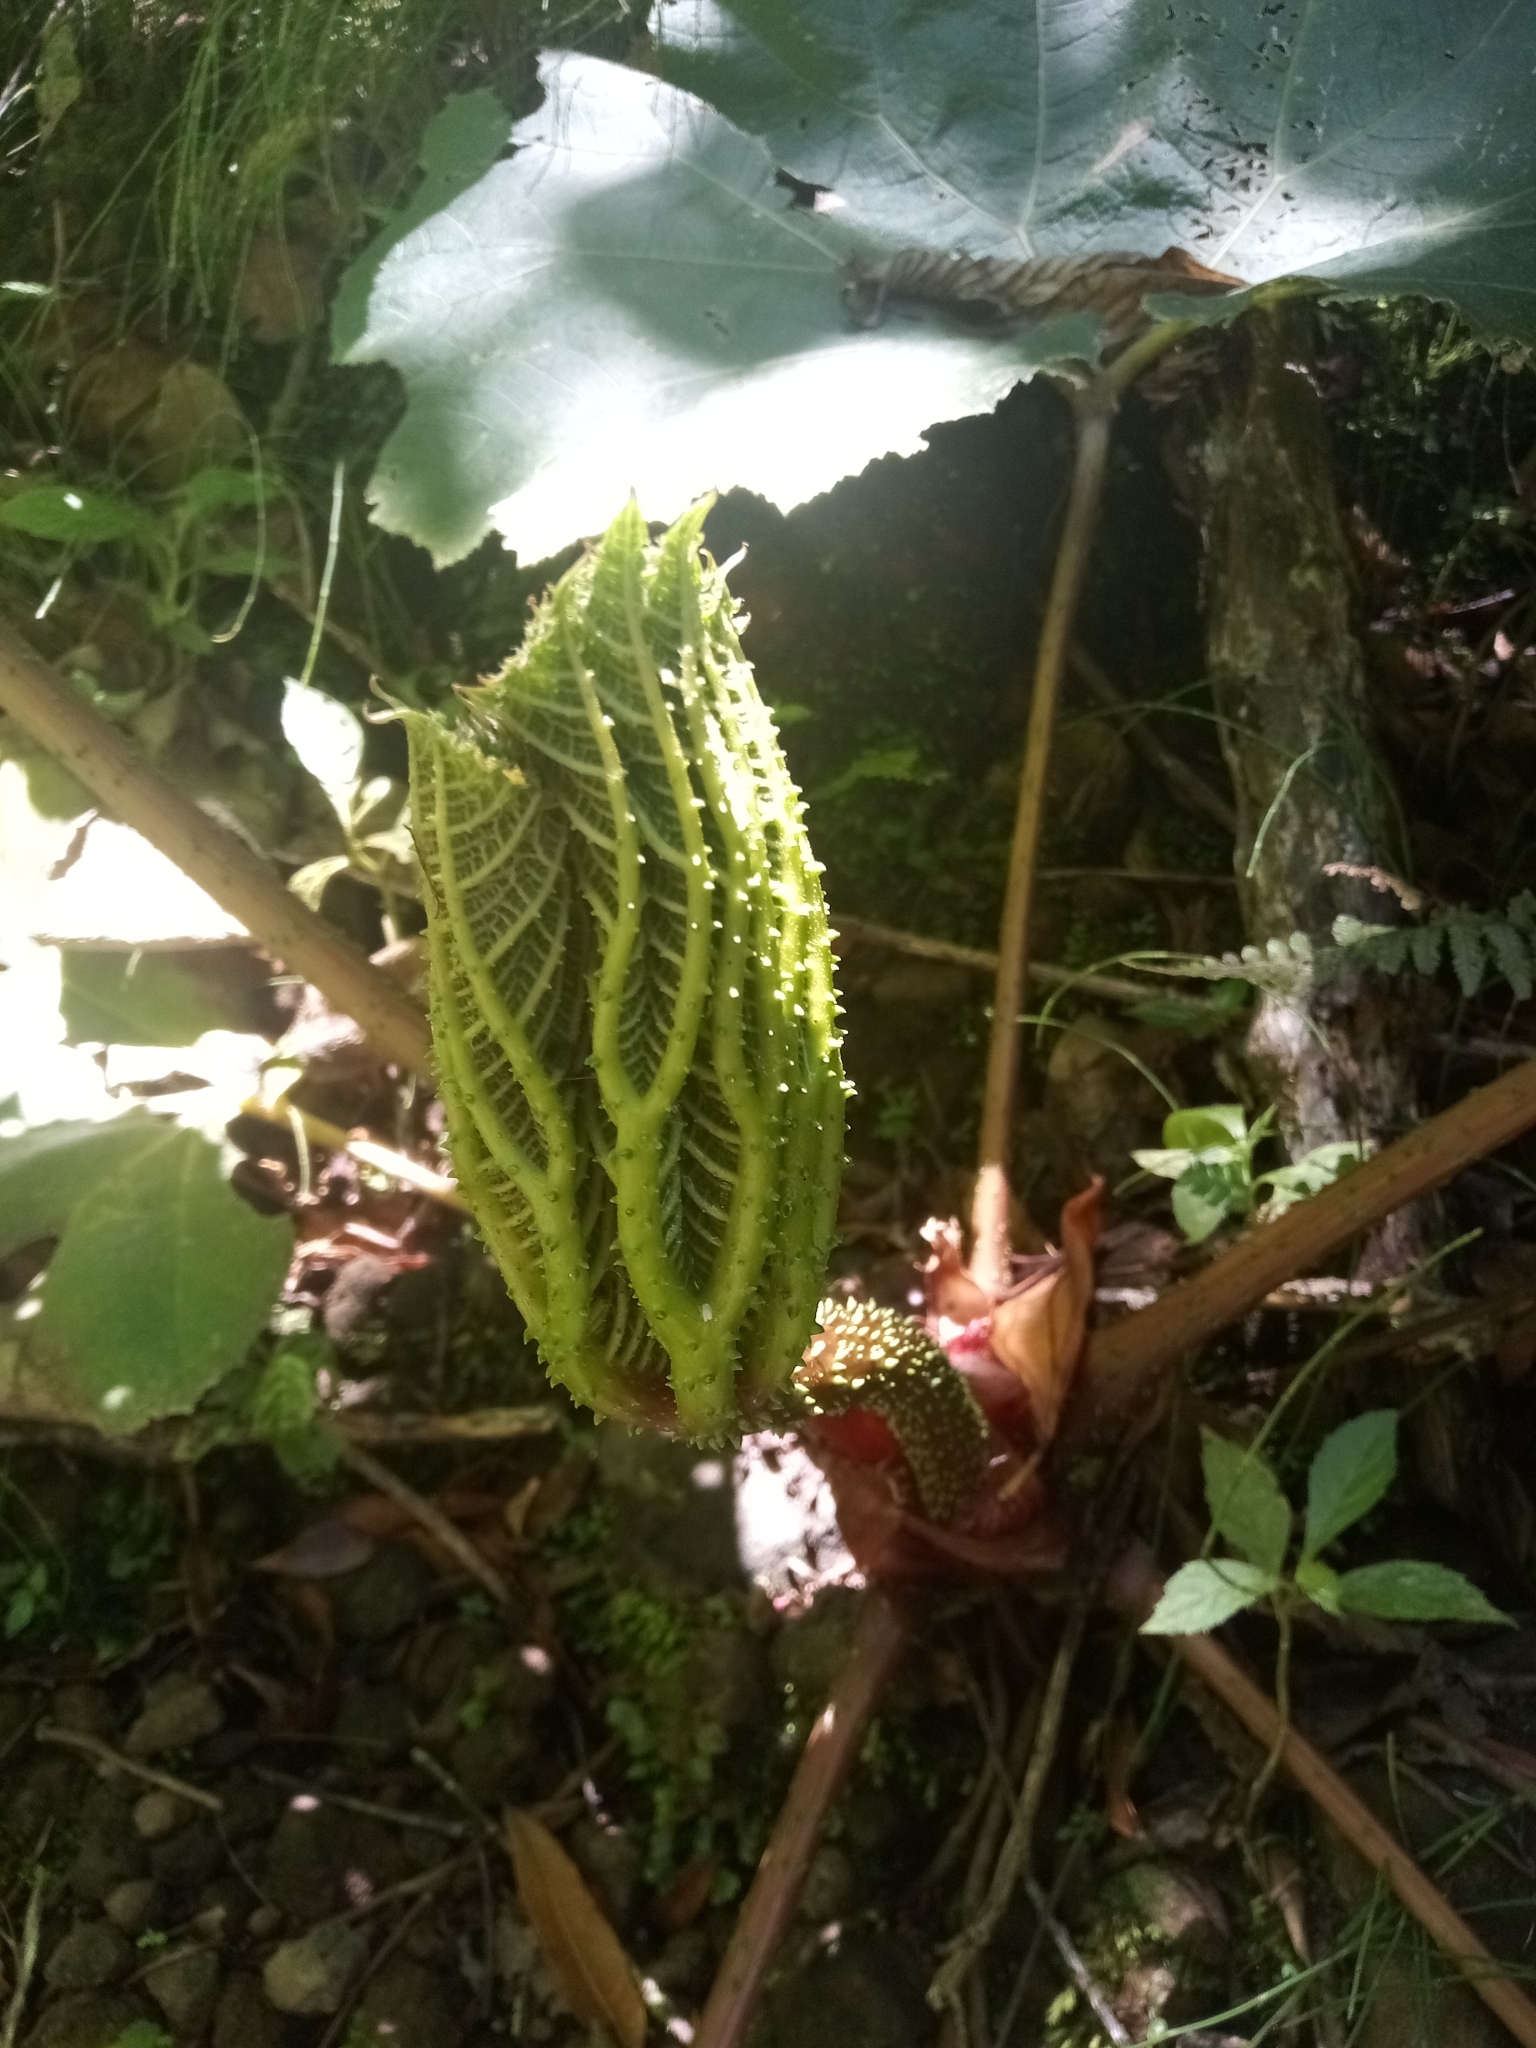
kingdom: Plantae
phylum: Tracheophyta
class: Magnoliopsida
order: Gunnerales
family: Gunneraceae
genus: Gunnera
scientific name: Gunnera insignis
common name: Poorman's umbrella
